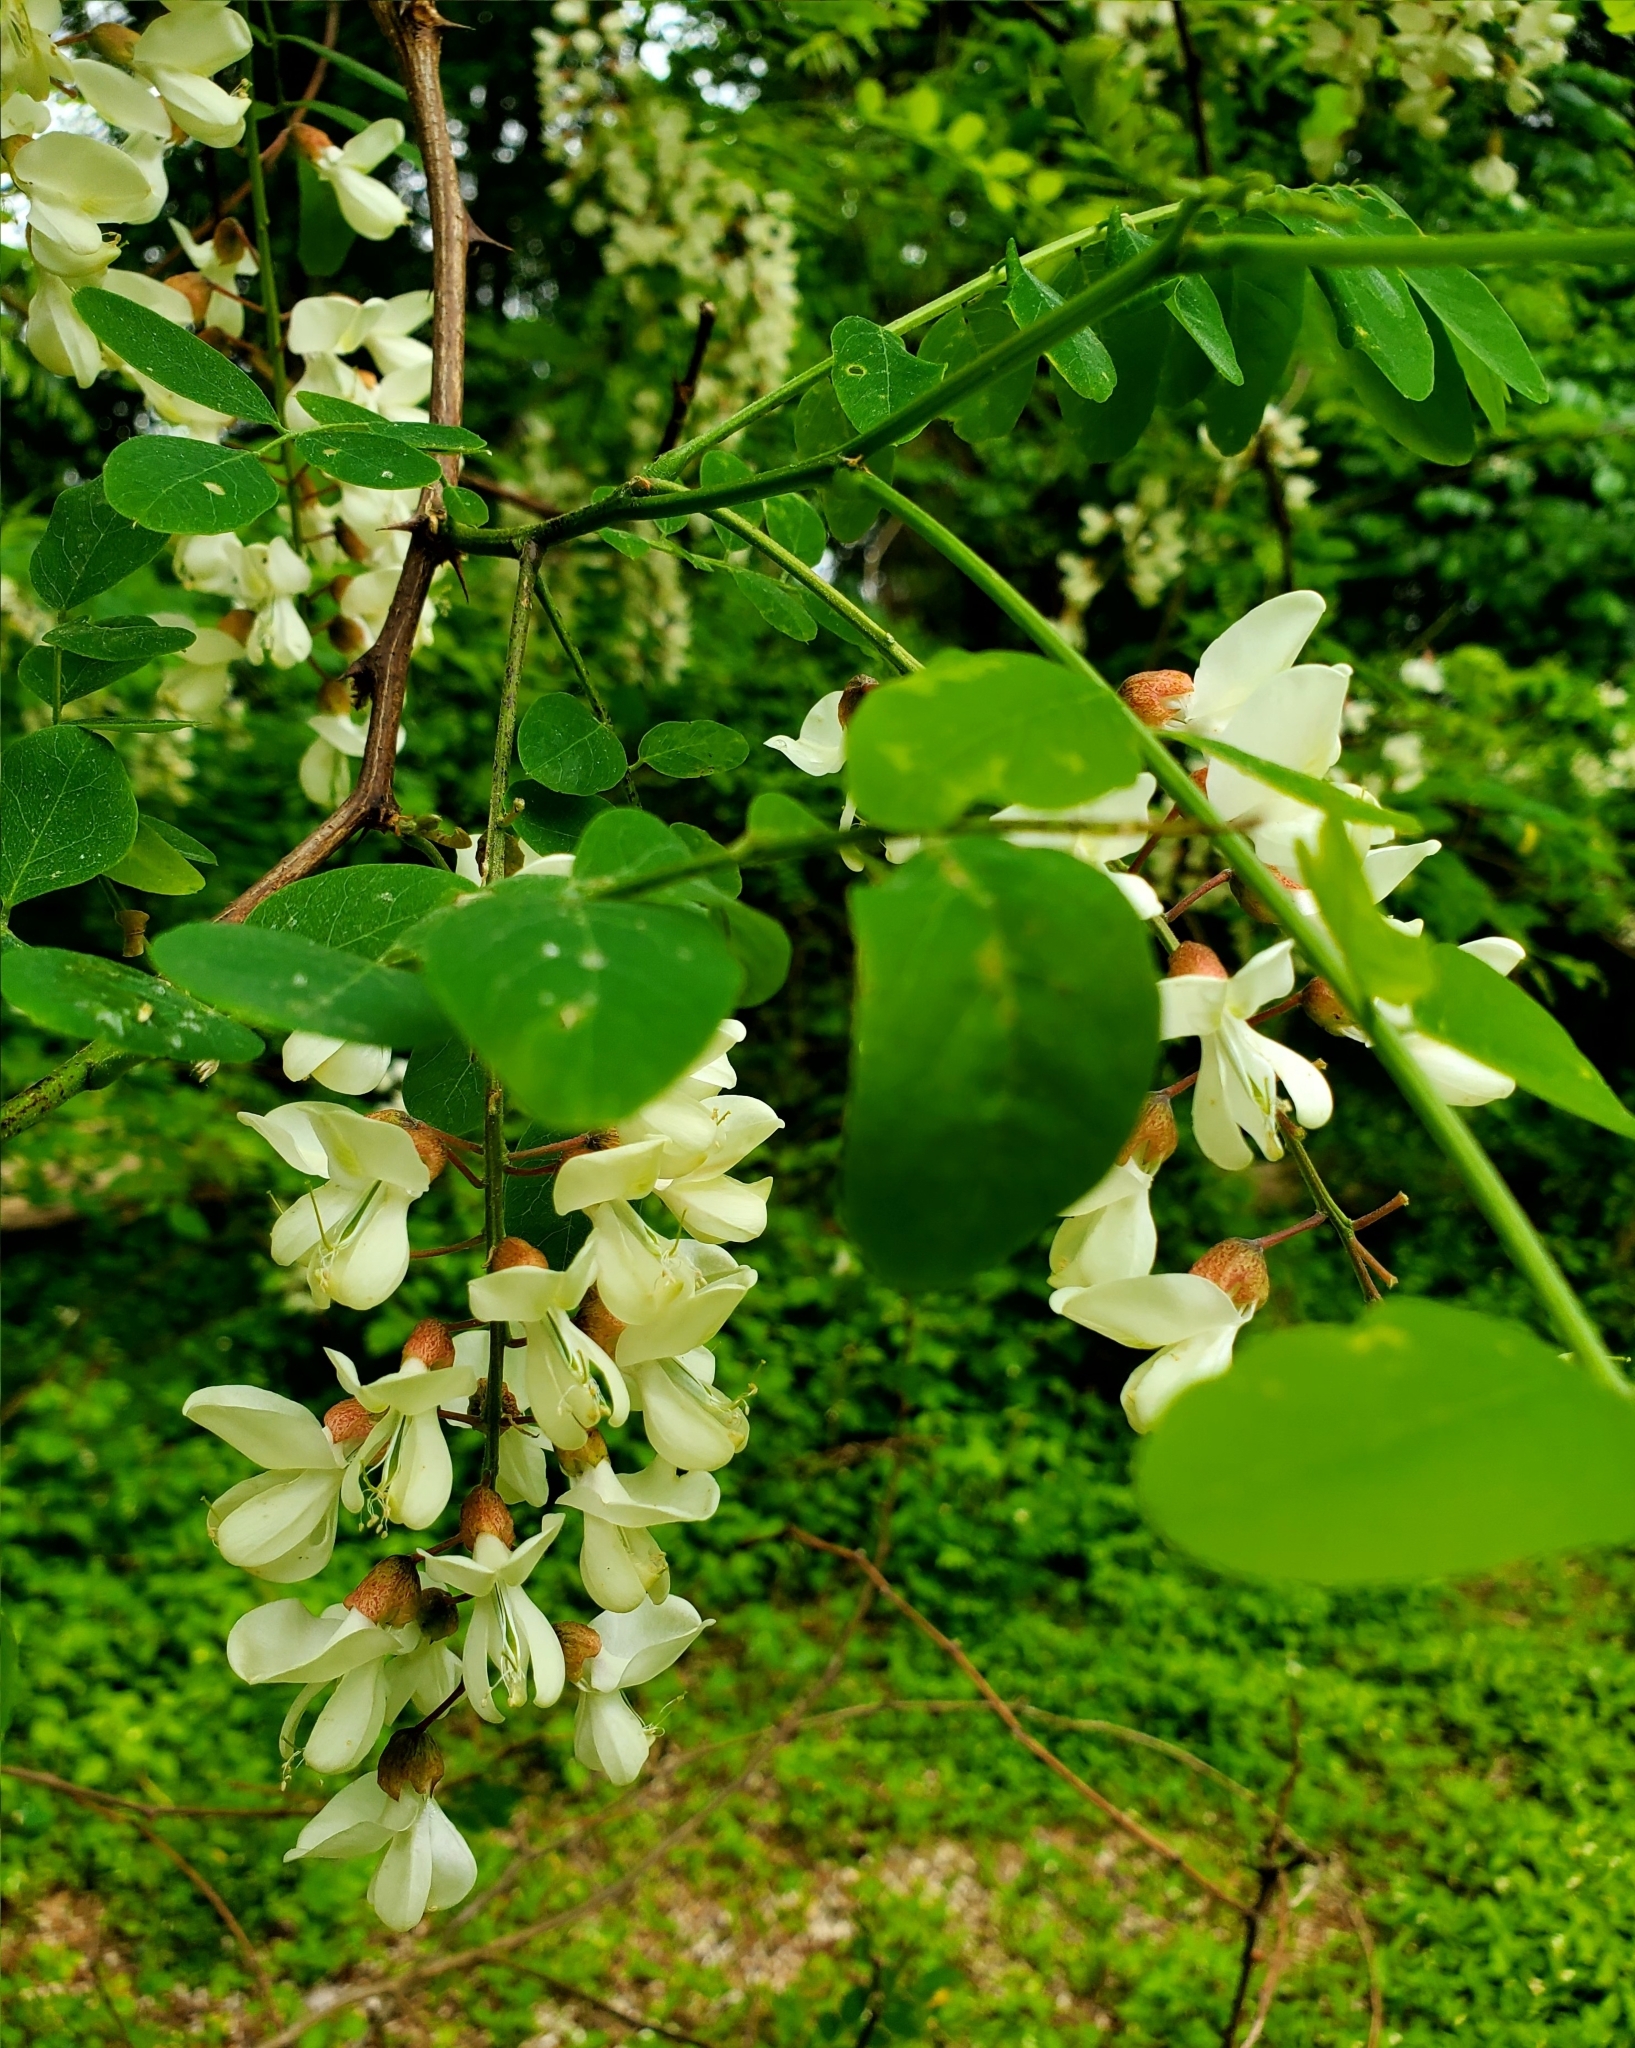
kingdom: Plantae
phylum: Tracheophyta
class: Magnoliopsida
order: Fabales
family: Fabaceae
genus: Robinia
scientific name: Robinia pseudoacacia
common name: Black locust
